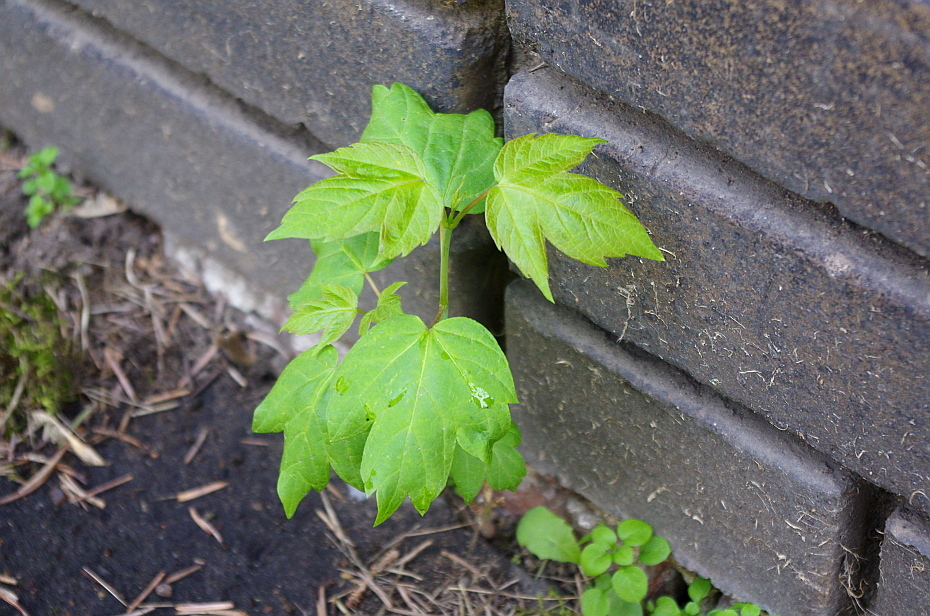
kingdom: Plantae
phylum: Tracheophyta
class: Magnoliopsida
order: Sapindales
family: Sapindaceae
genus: Acer
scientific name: Acer negundo
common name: Ashleaf maple
